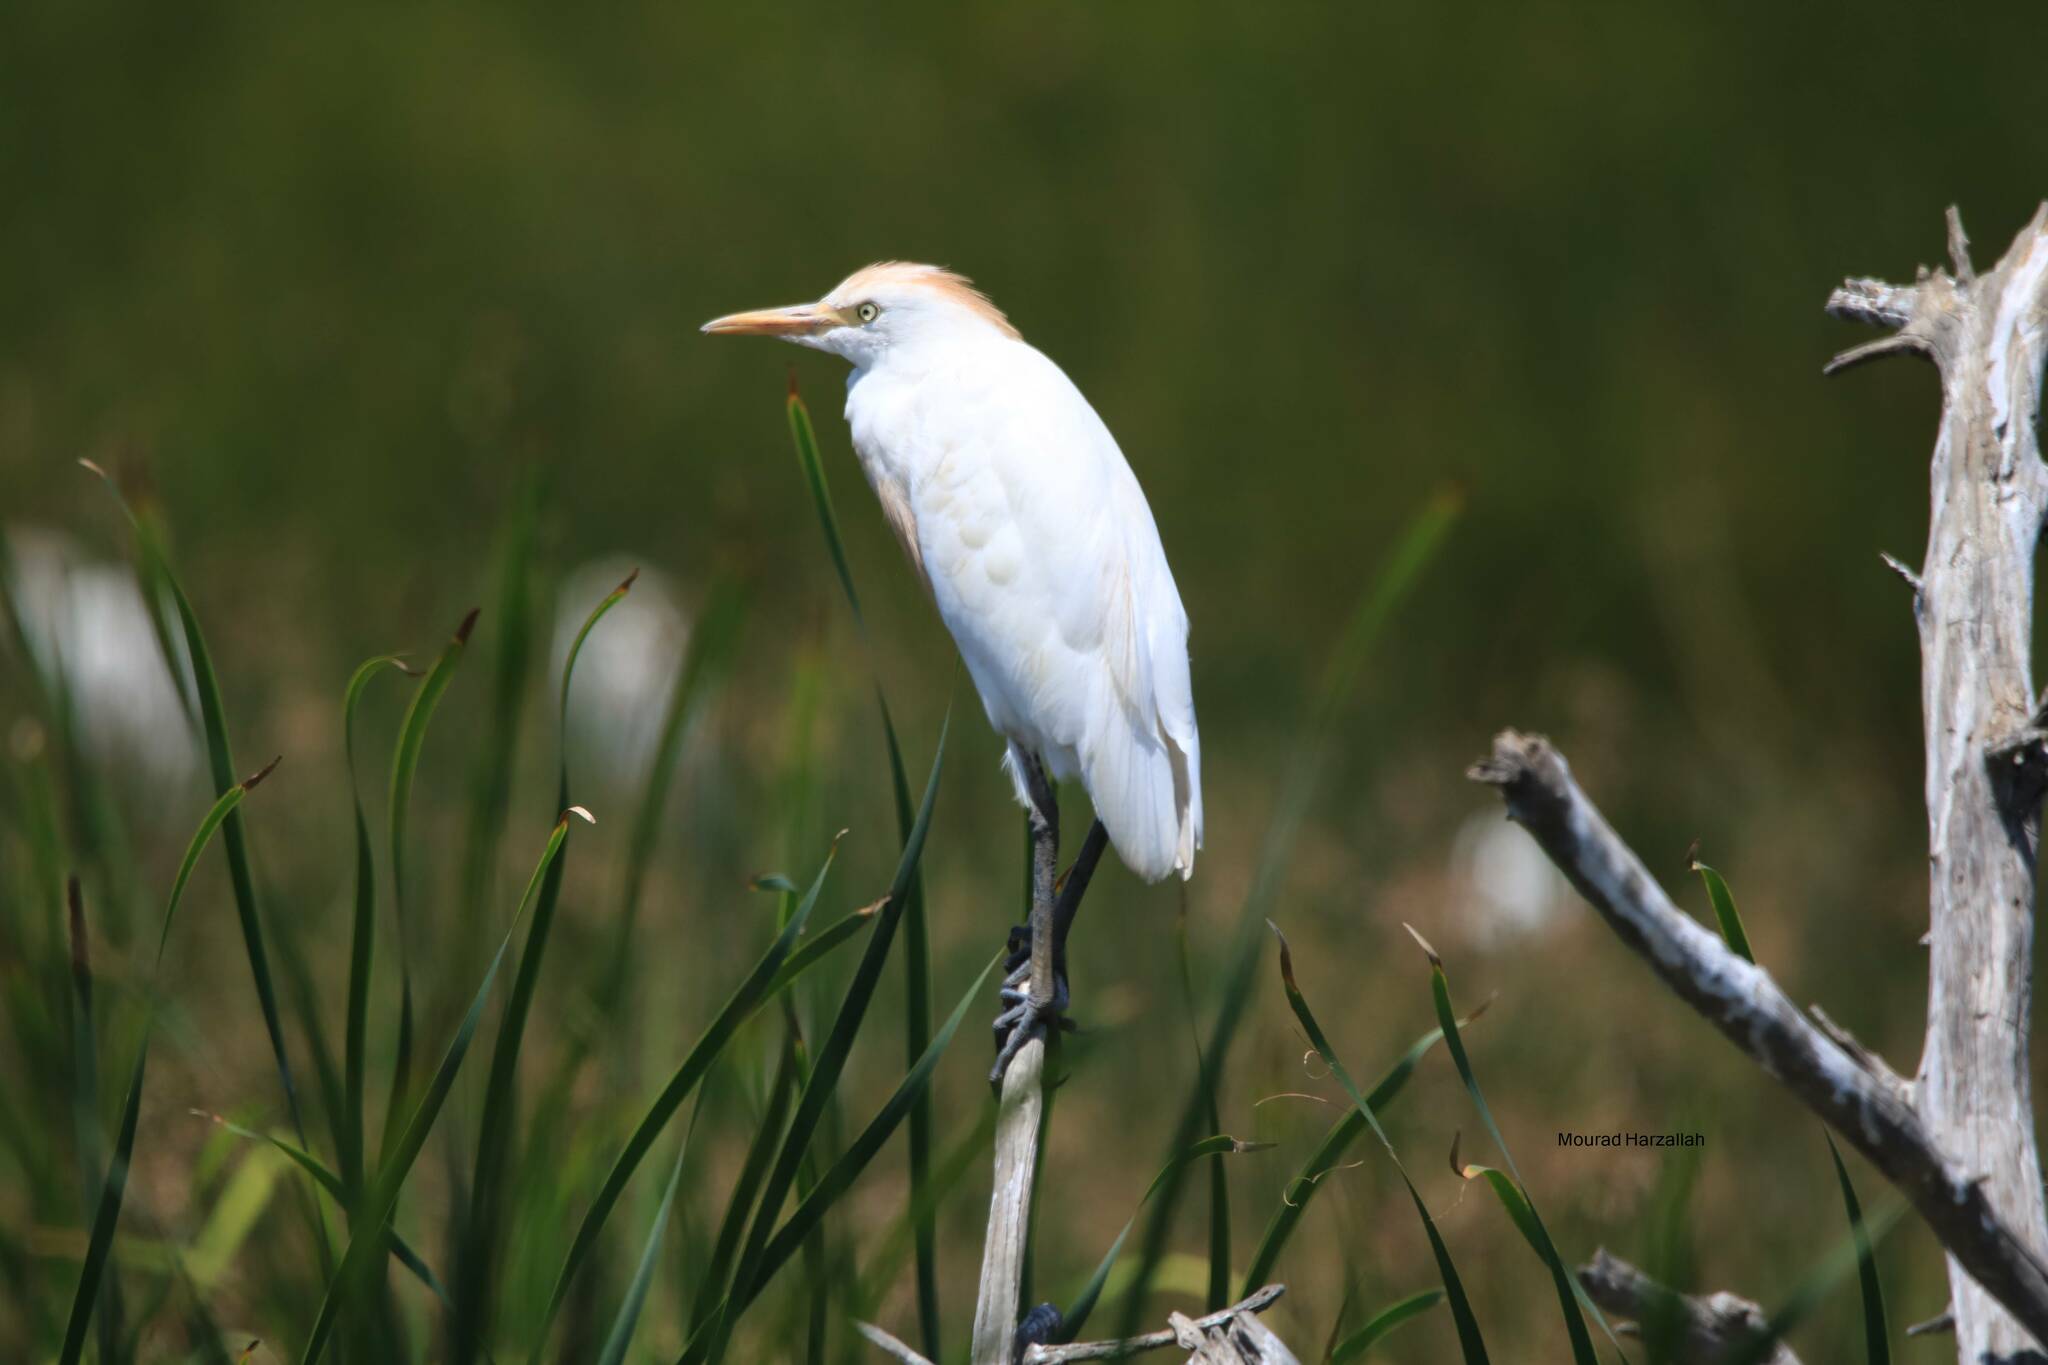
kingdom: Animalia
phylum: Chordata
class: Aves
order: Pelecaniformes
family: Ardeidae
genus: Bubulcus
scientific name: Bubulcus ibis
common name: Cattle egret
